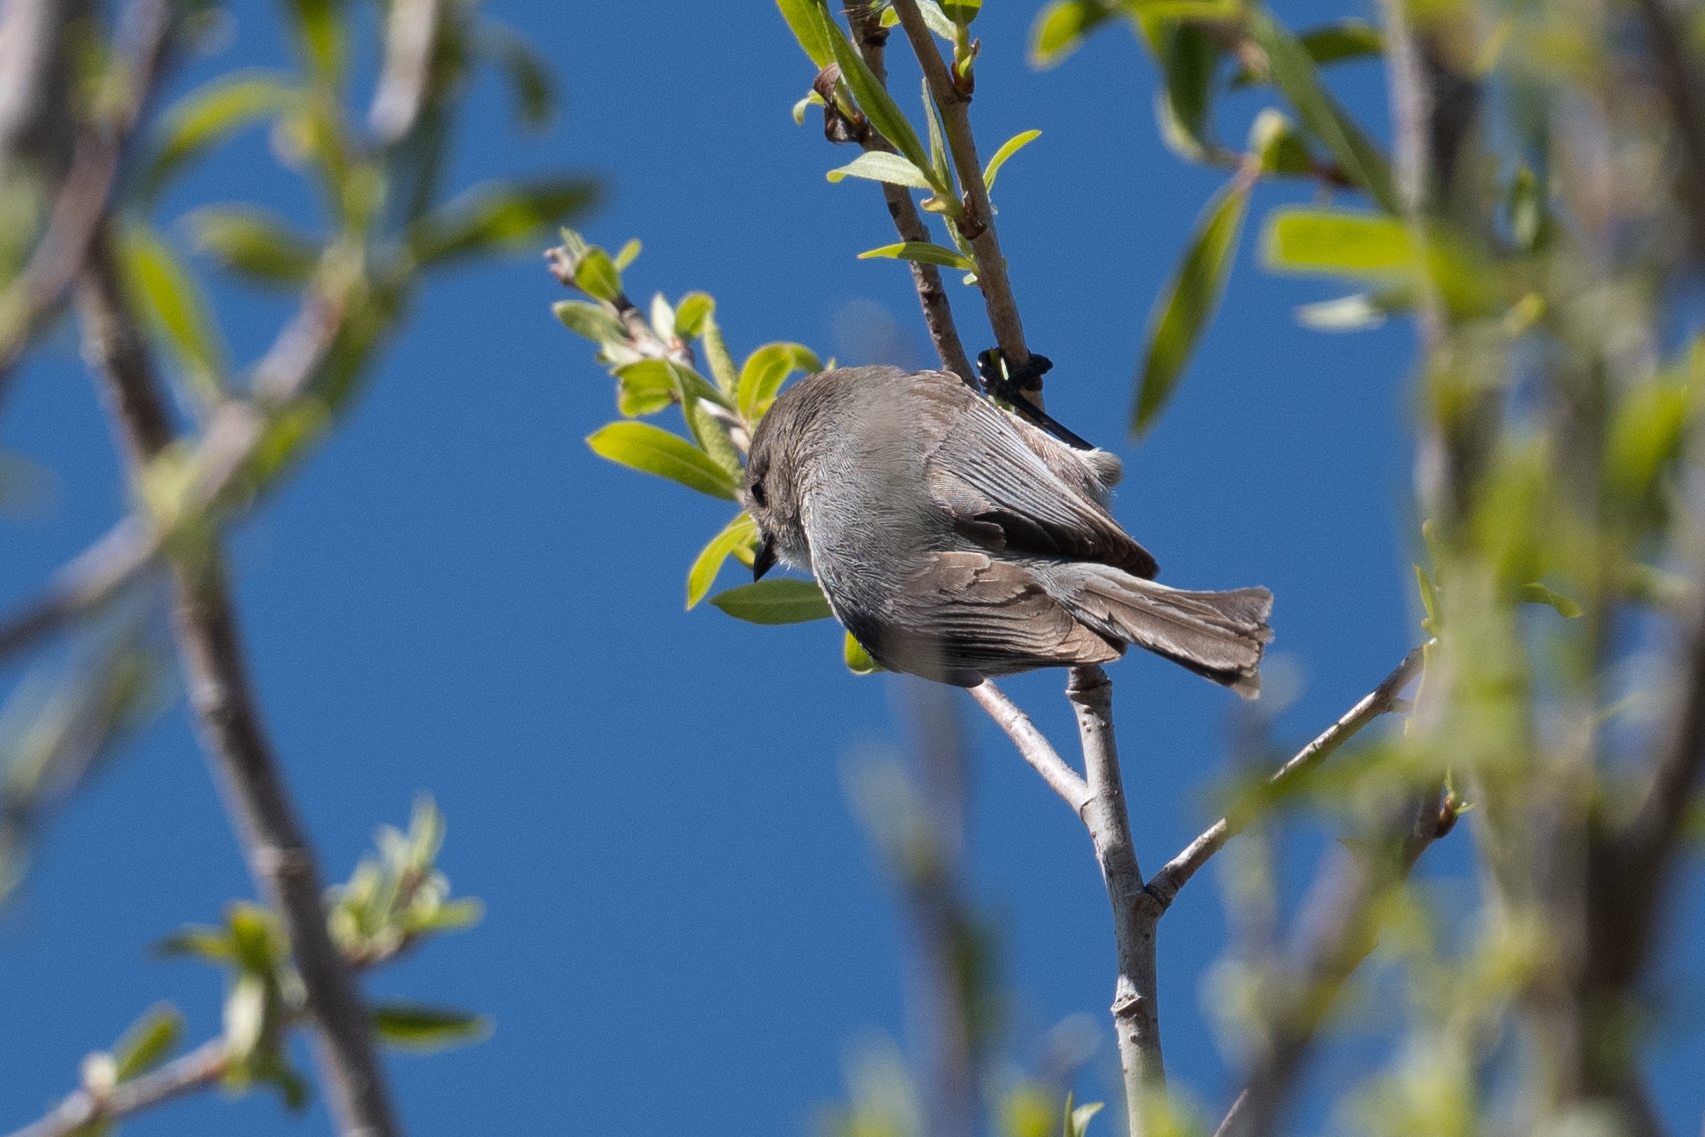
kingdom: Animalia
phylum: Chordata
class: Aves
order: Passeriformes
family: Aegithalidae
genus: Psaltriparus
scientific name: Psaltriparus minimus
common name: American bushtit
